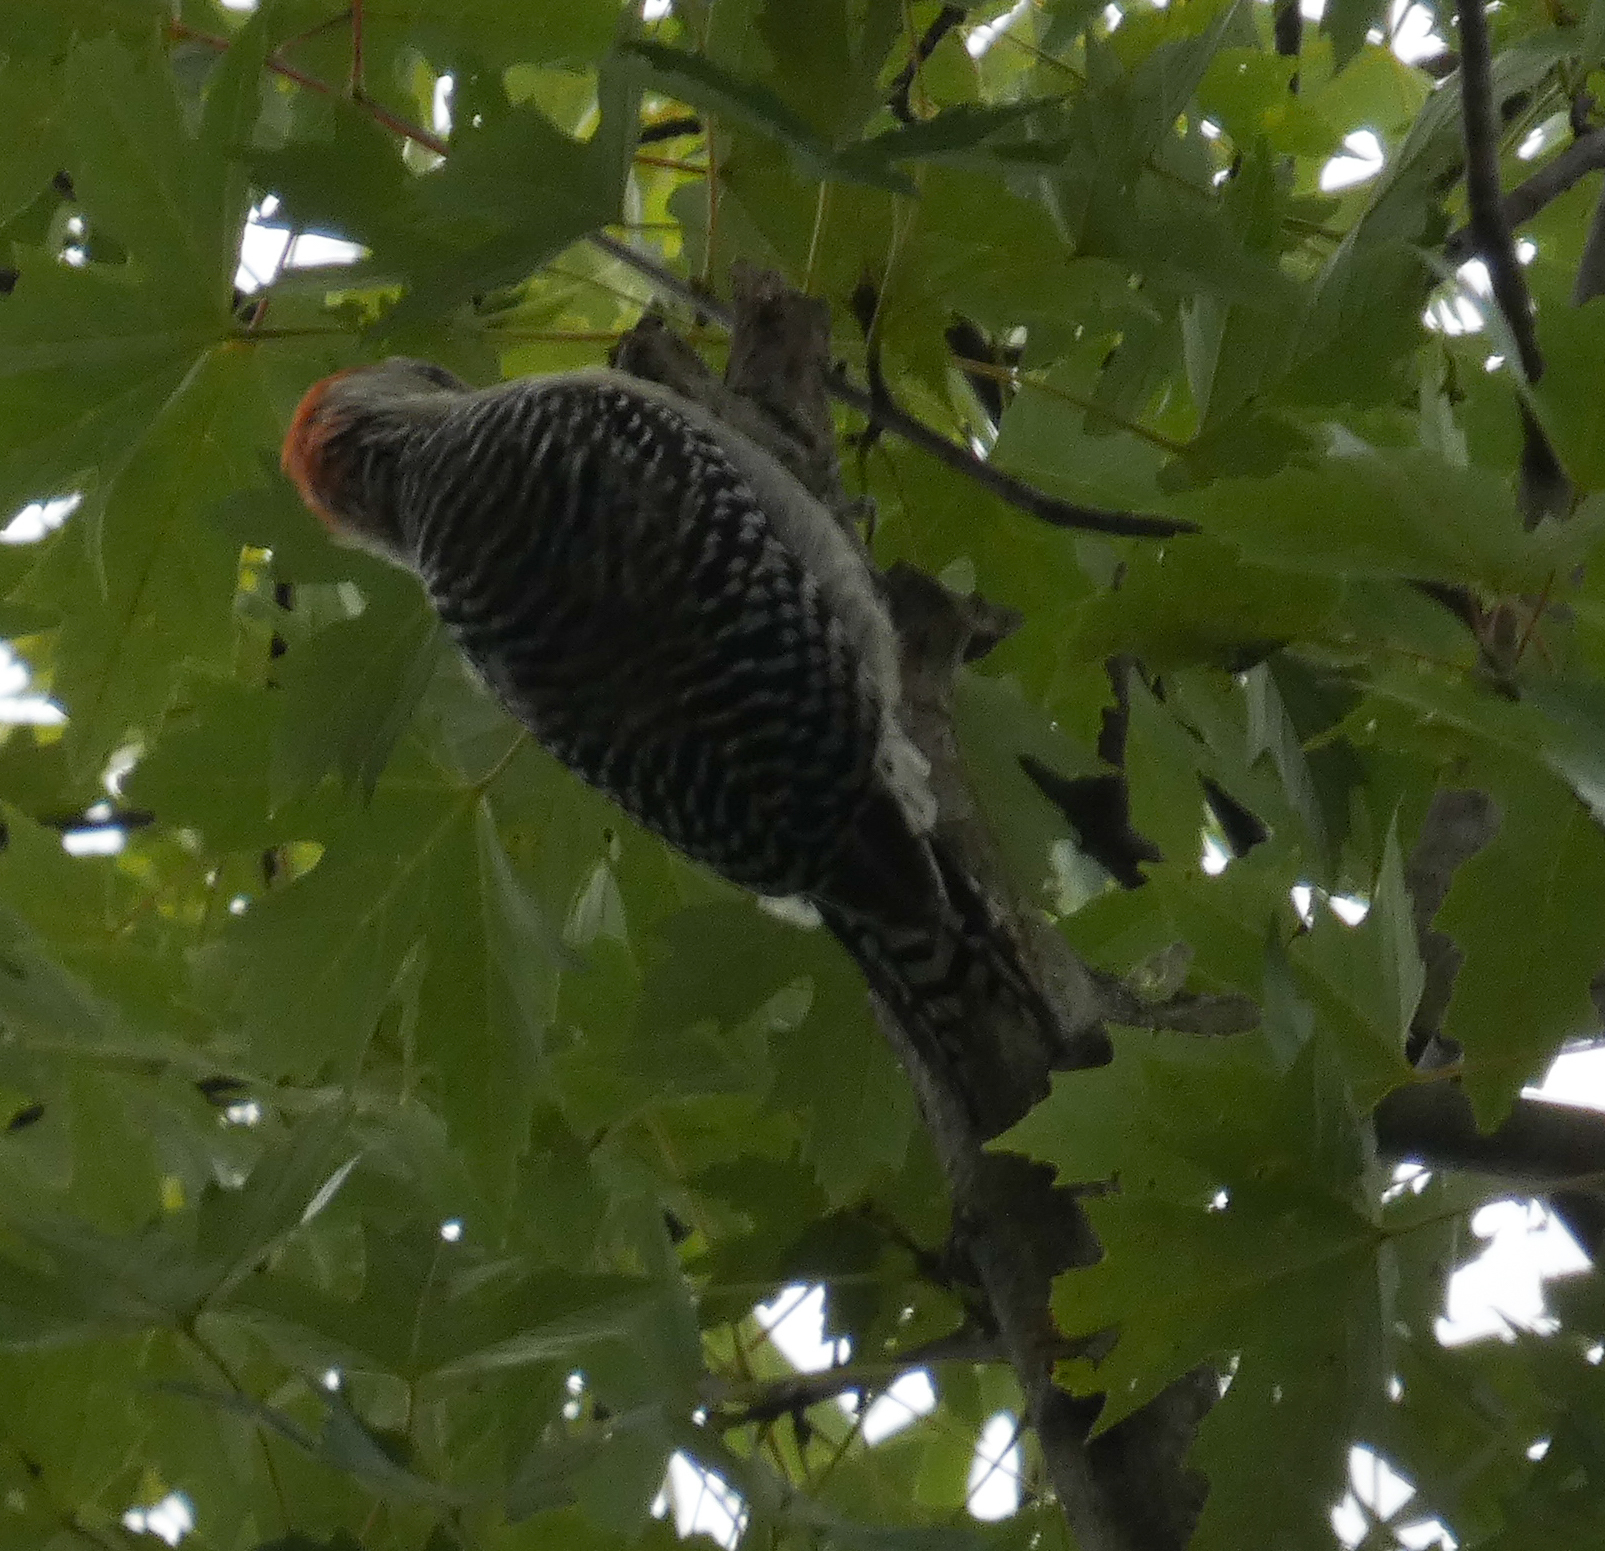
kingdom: Animalia
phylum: Chordata
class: Aves
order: Piciformes
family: Picidae
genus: Melanerpes
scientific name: Melanerpes carolinus
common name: Red-bellied woodpecker
